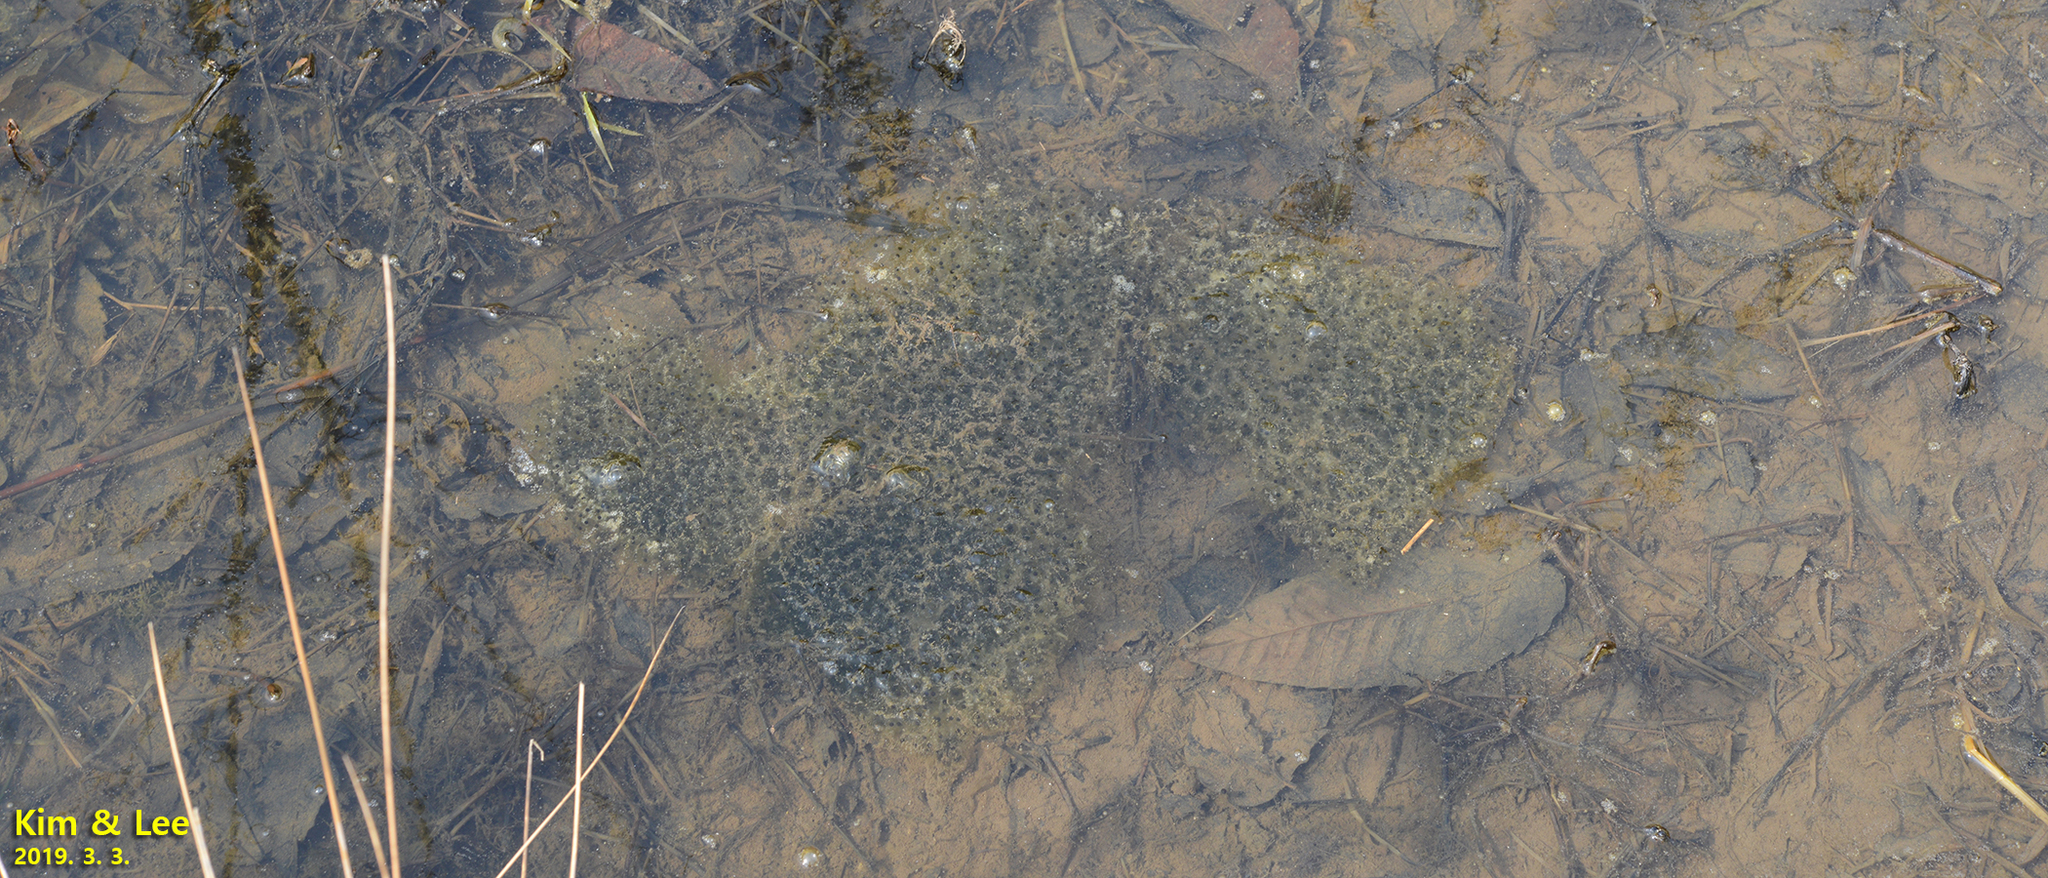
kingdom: Animalia
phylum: Chordata
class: Amphibia
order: Anura
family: Ranidae
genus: Rana
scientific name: Rana uenoi
